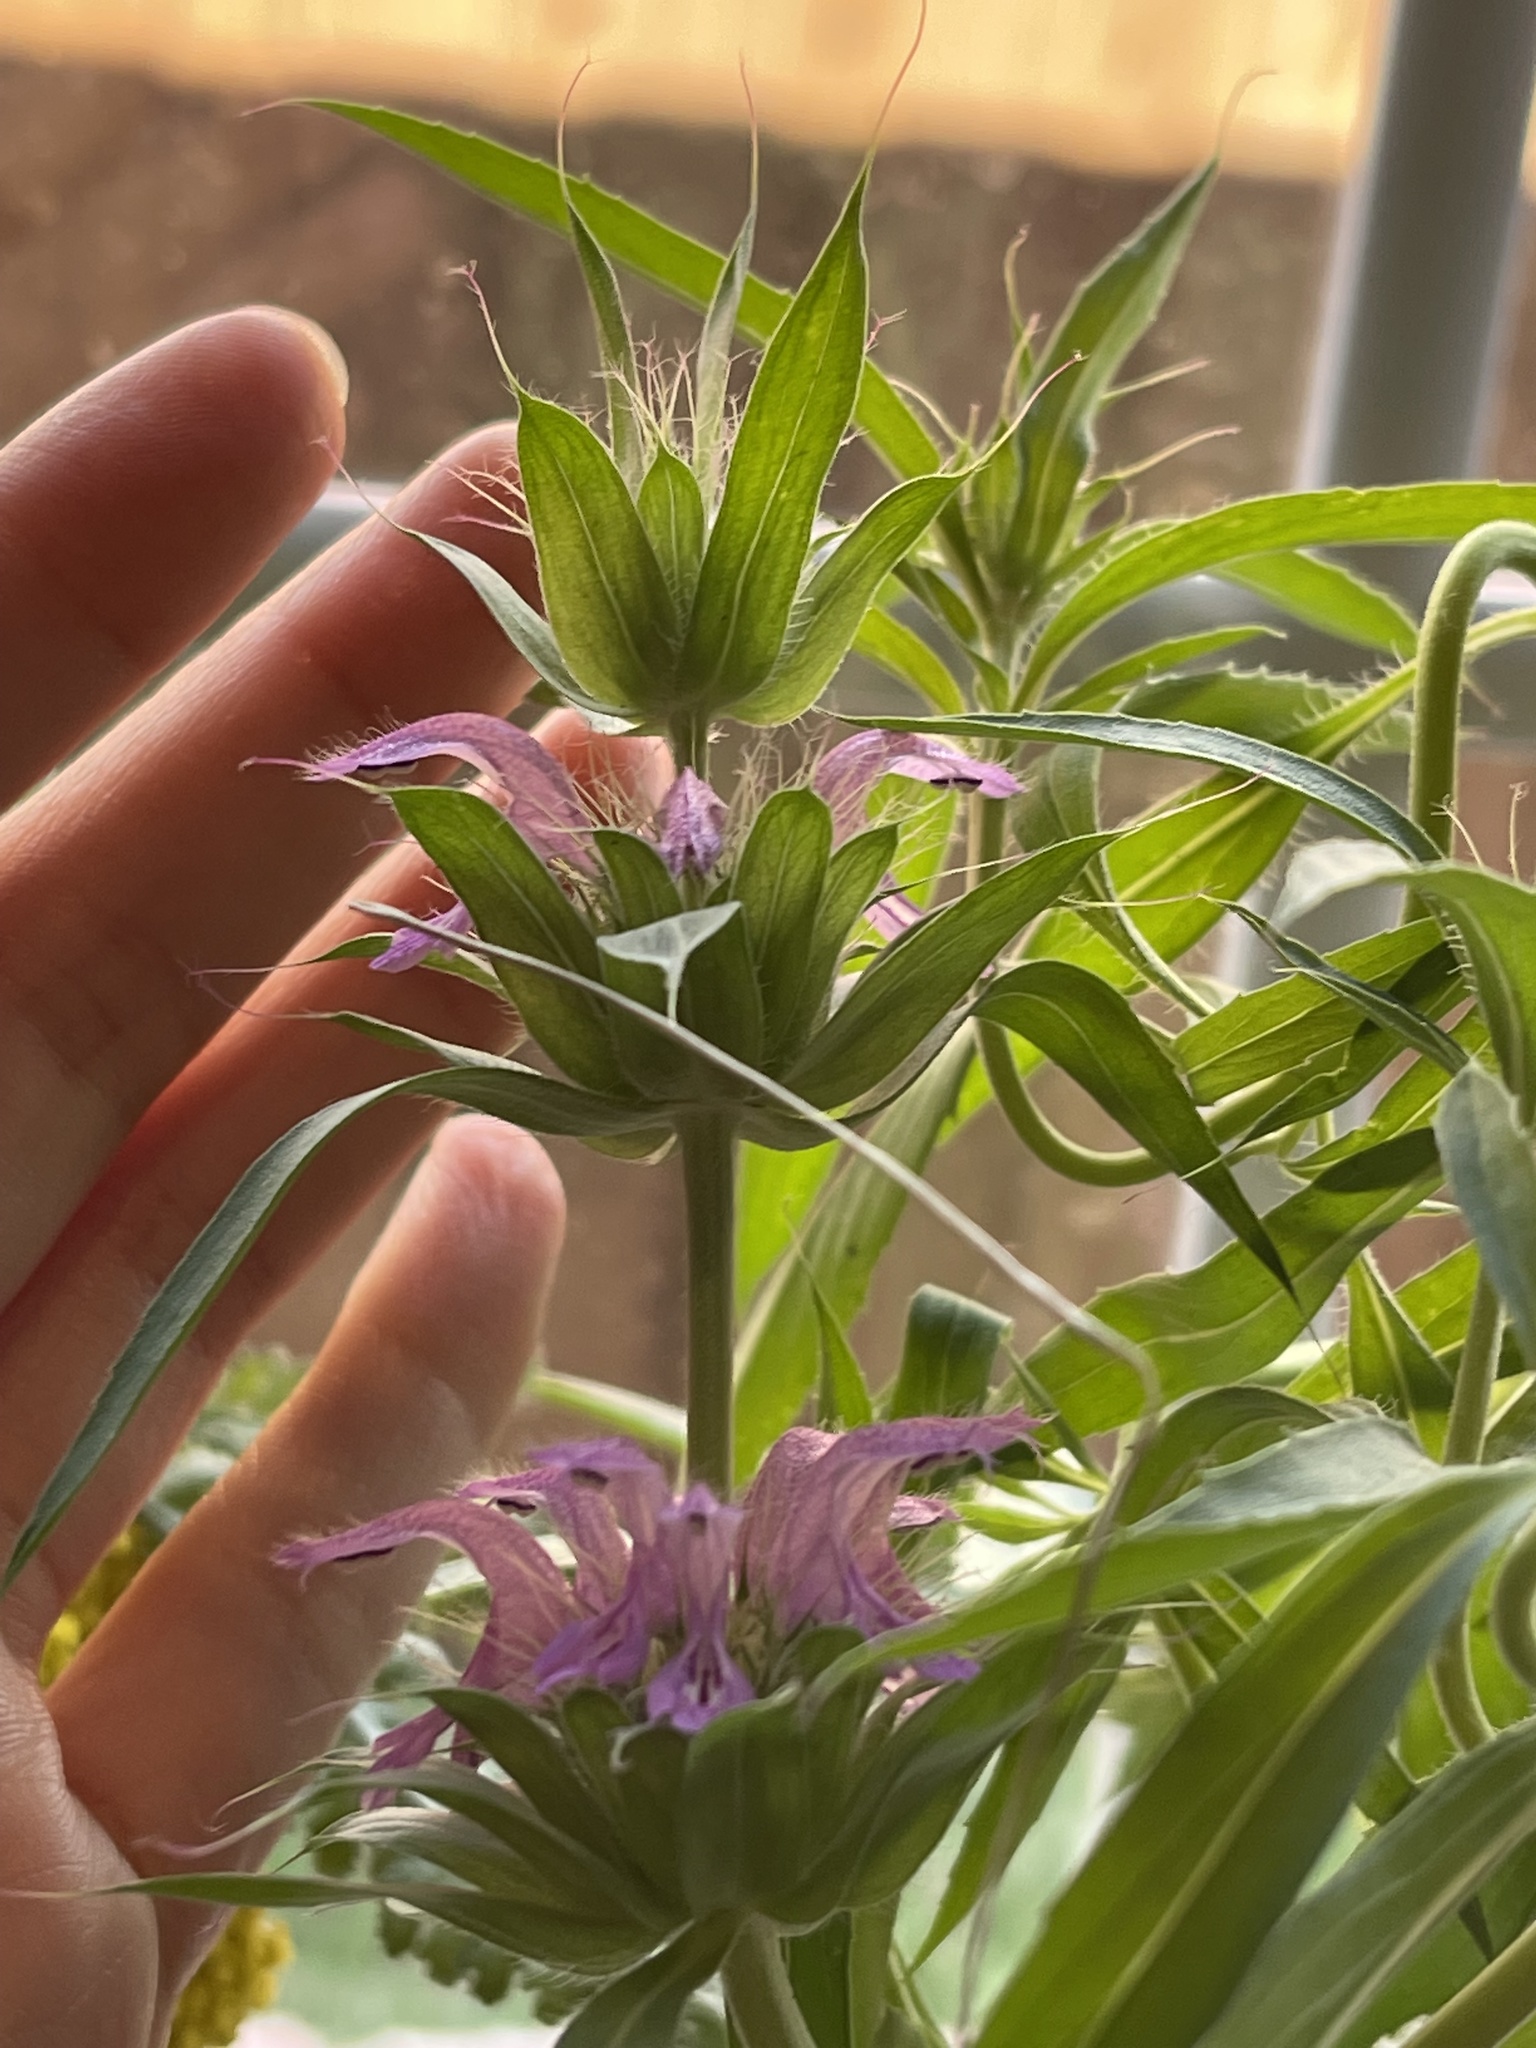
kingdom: Plantae
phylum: Tracheophyta
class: Magnoliopsida
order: Lamiales
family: Lamiaceae
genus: Monarda
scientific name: Monarda citriodora
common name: Lemon beebalm
